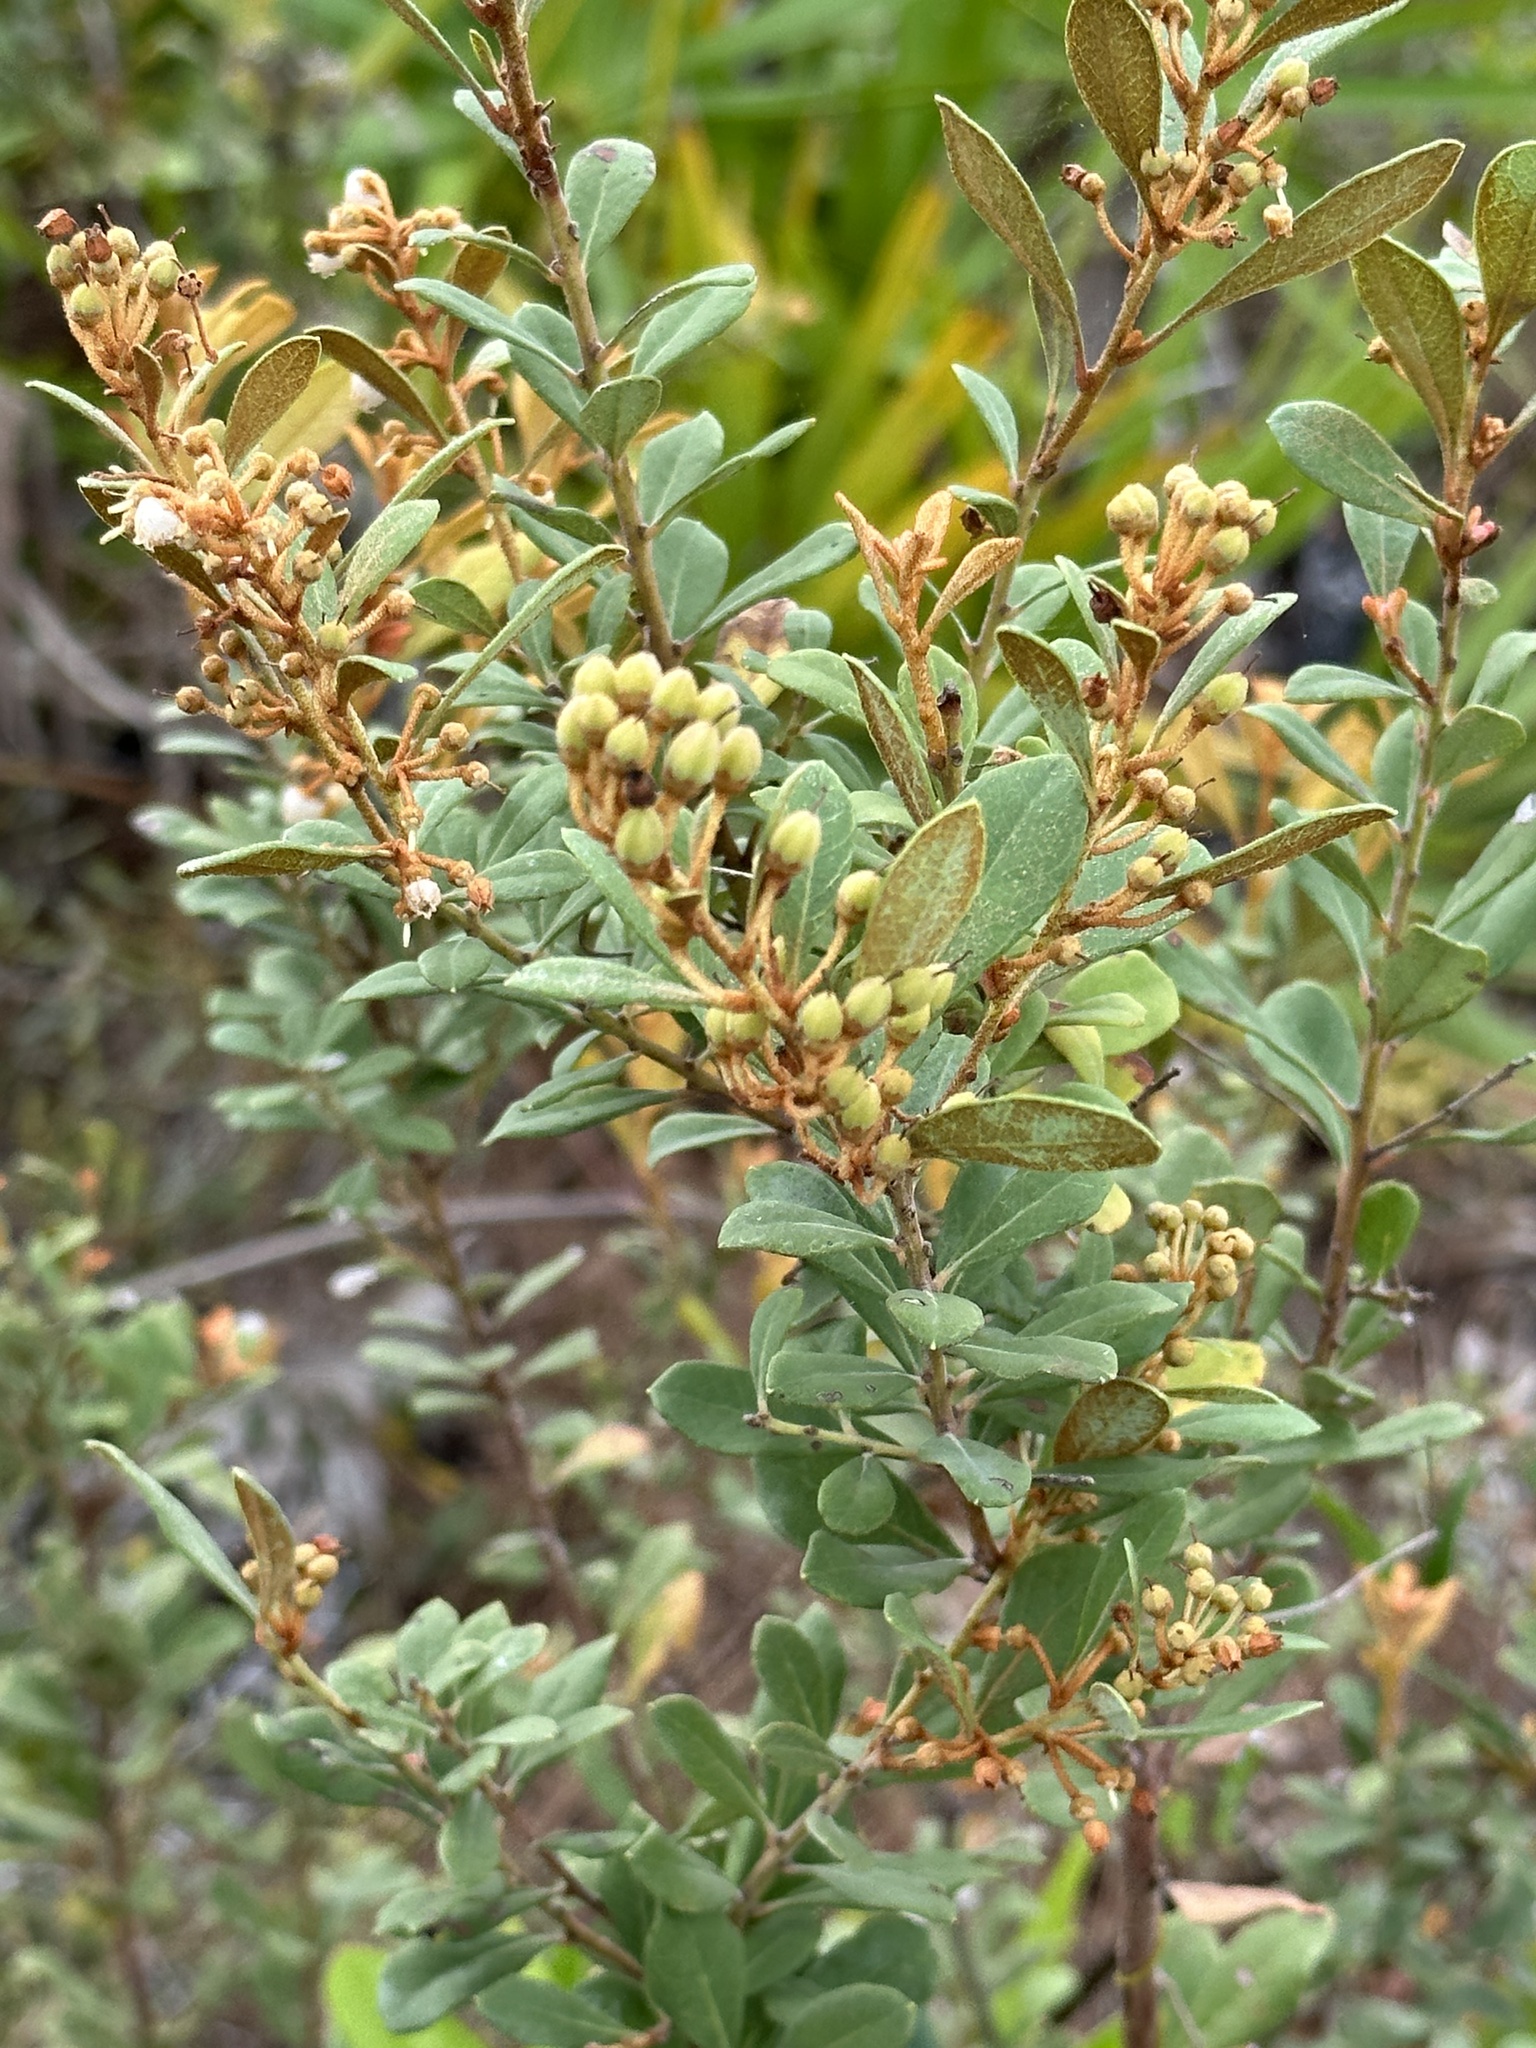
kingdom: Plantae
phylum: Tracheophyta
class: Magnoliopsida
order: Ericales
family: Ericaceae
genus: Lyonia
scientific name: Lyonia fruticosa
